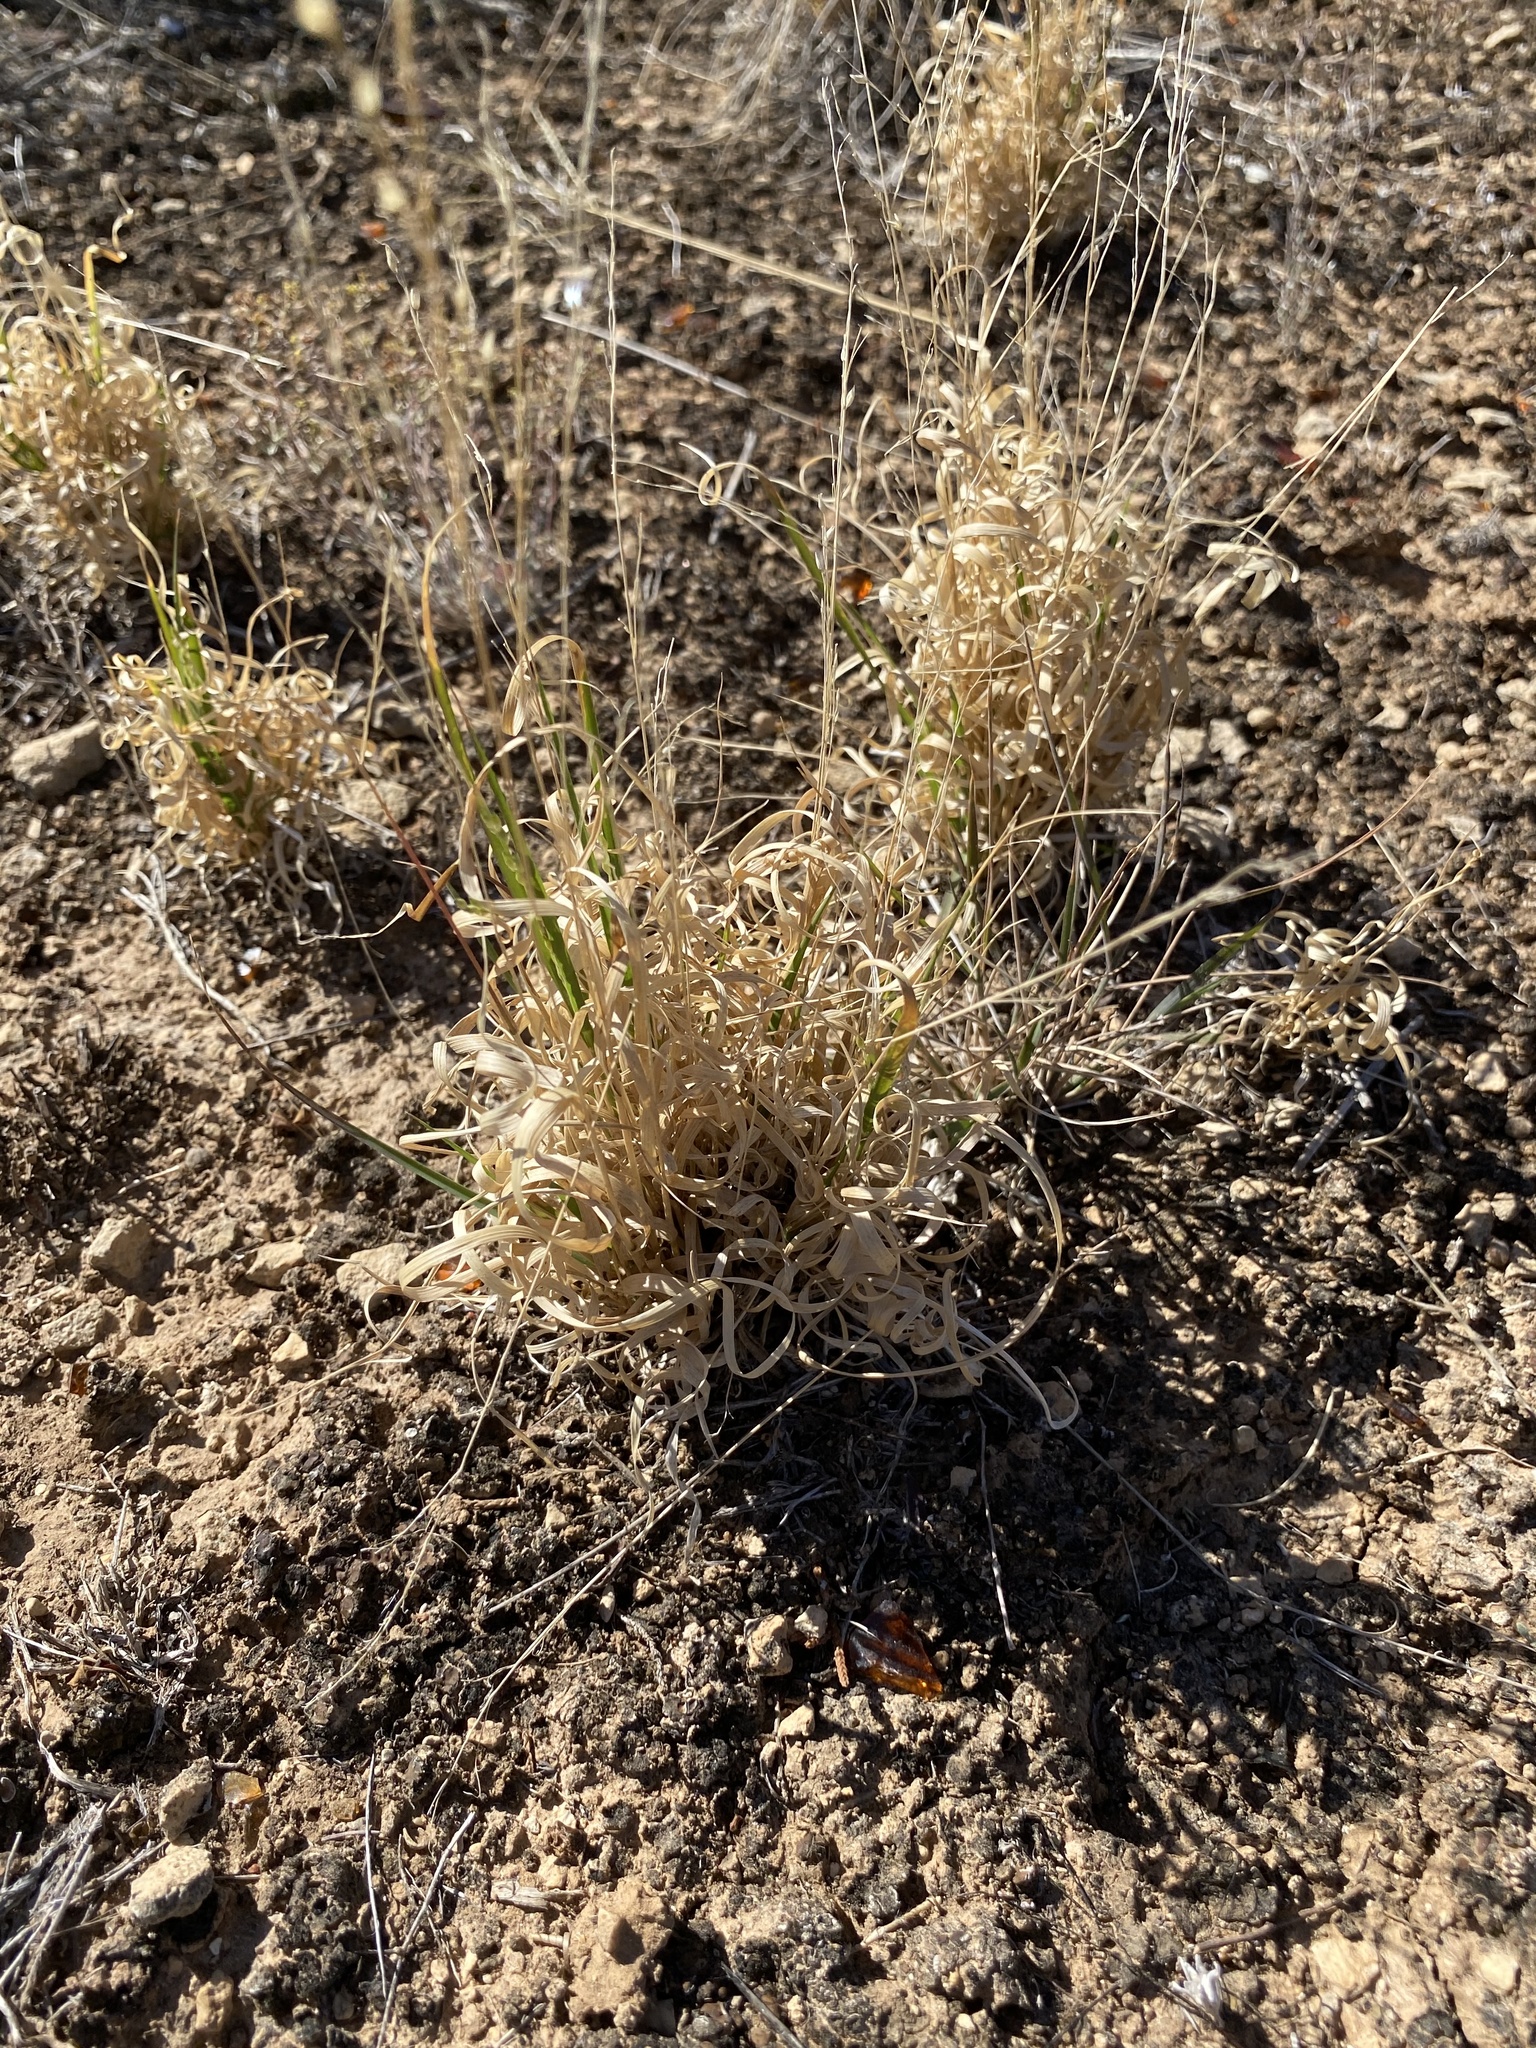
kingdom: Plantae
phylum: Tracheophyta
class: Liliopsida
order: Poales
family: Poaceae
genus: Panicum
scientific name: Panicum hallii
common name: Hall's witchgrass
